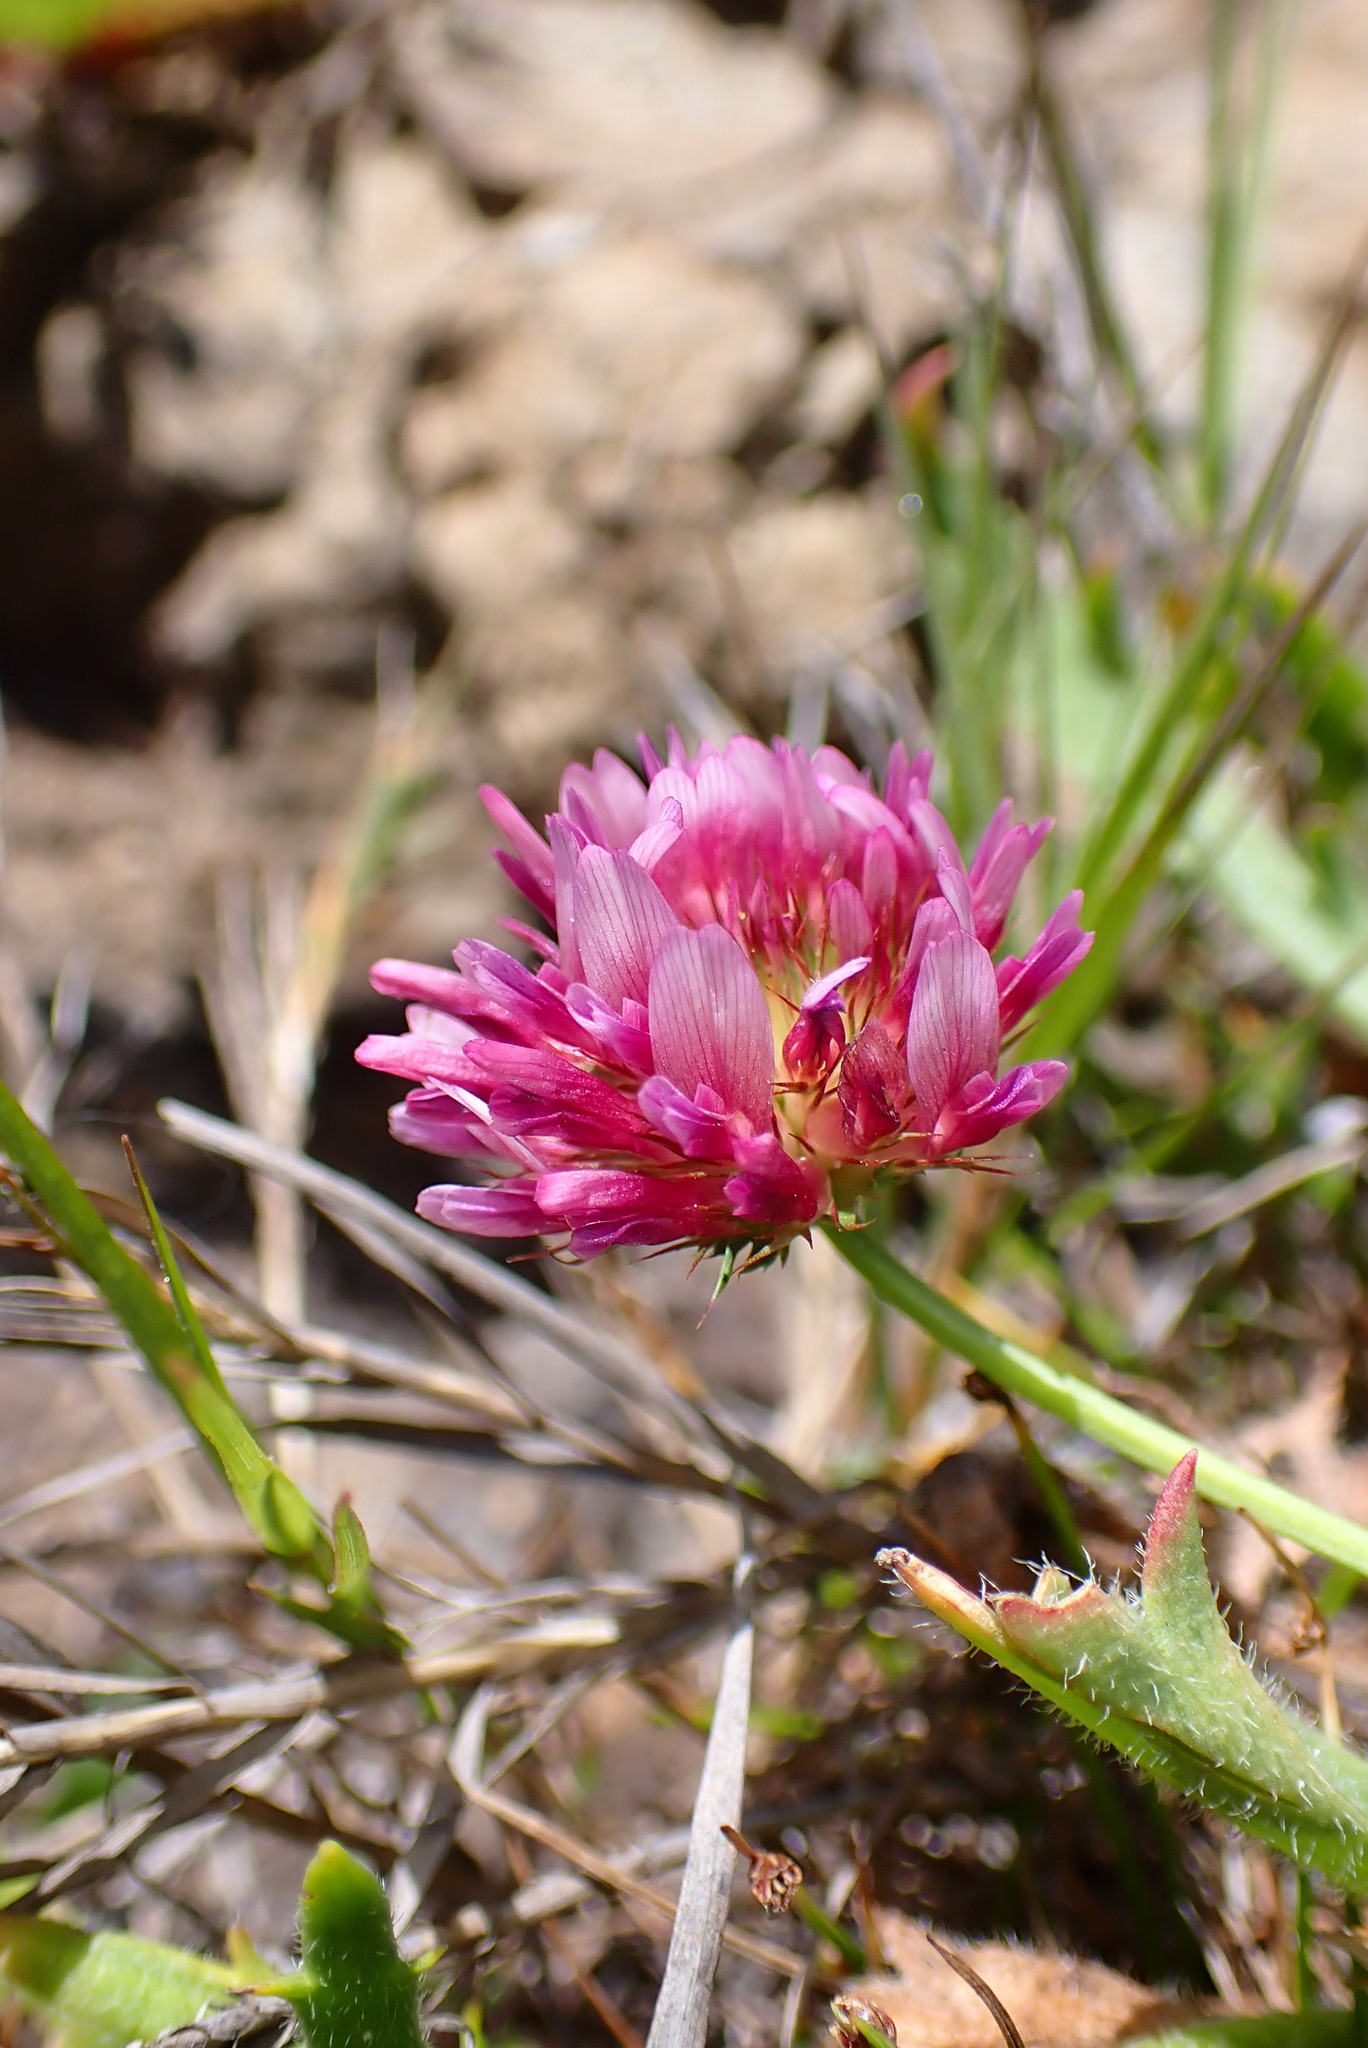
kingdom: Plantae
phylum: Tracheophyta
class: Magnoliopsida
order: Fabales
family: Fabaceae
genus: Trifolium
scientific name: Trifolium wormskioldii
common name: Springbank clover
